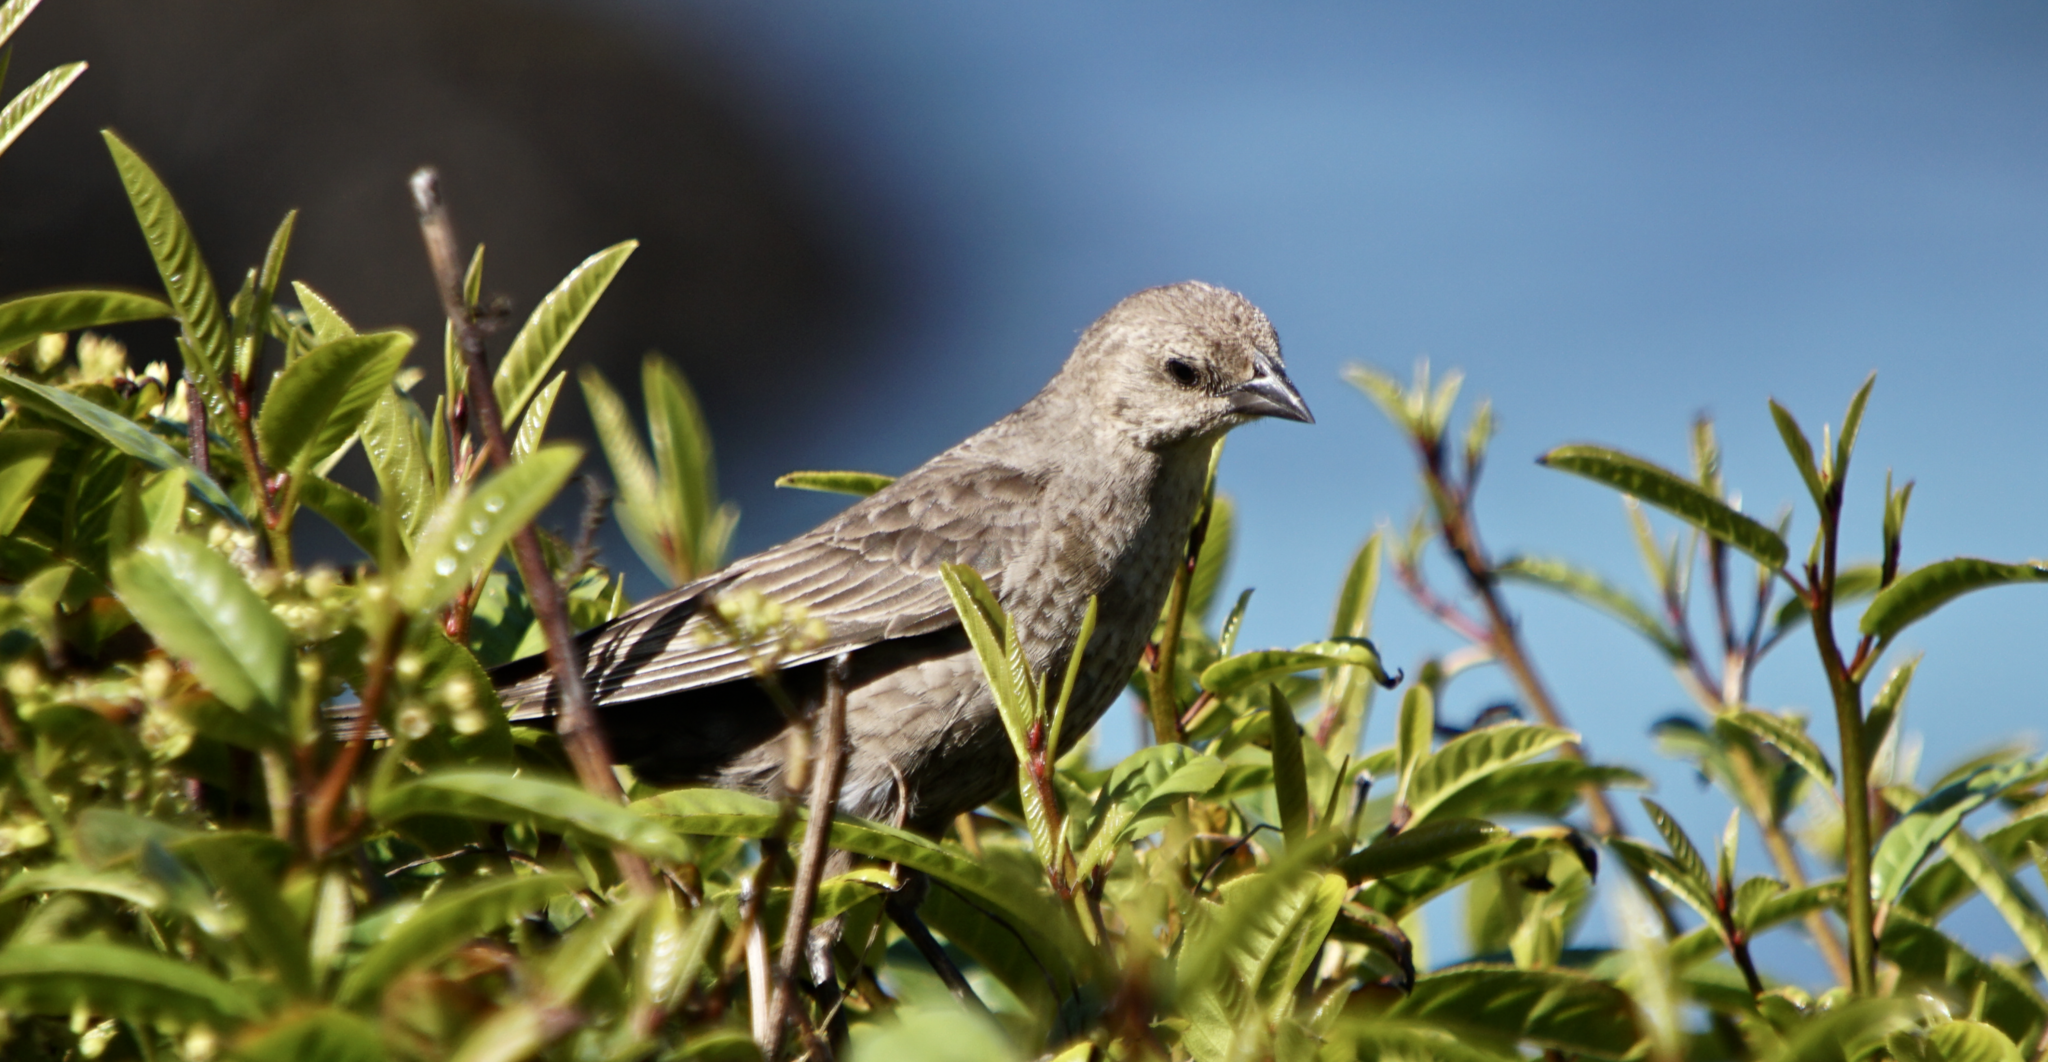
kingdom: Animalia
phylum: Chordata
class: Aves
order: Passeriformes
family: Icteridae
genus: Molothrus
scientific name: Molothrus ater
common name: Brown-headed cowbird
